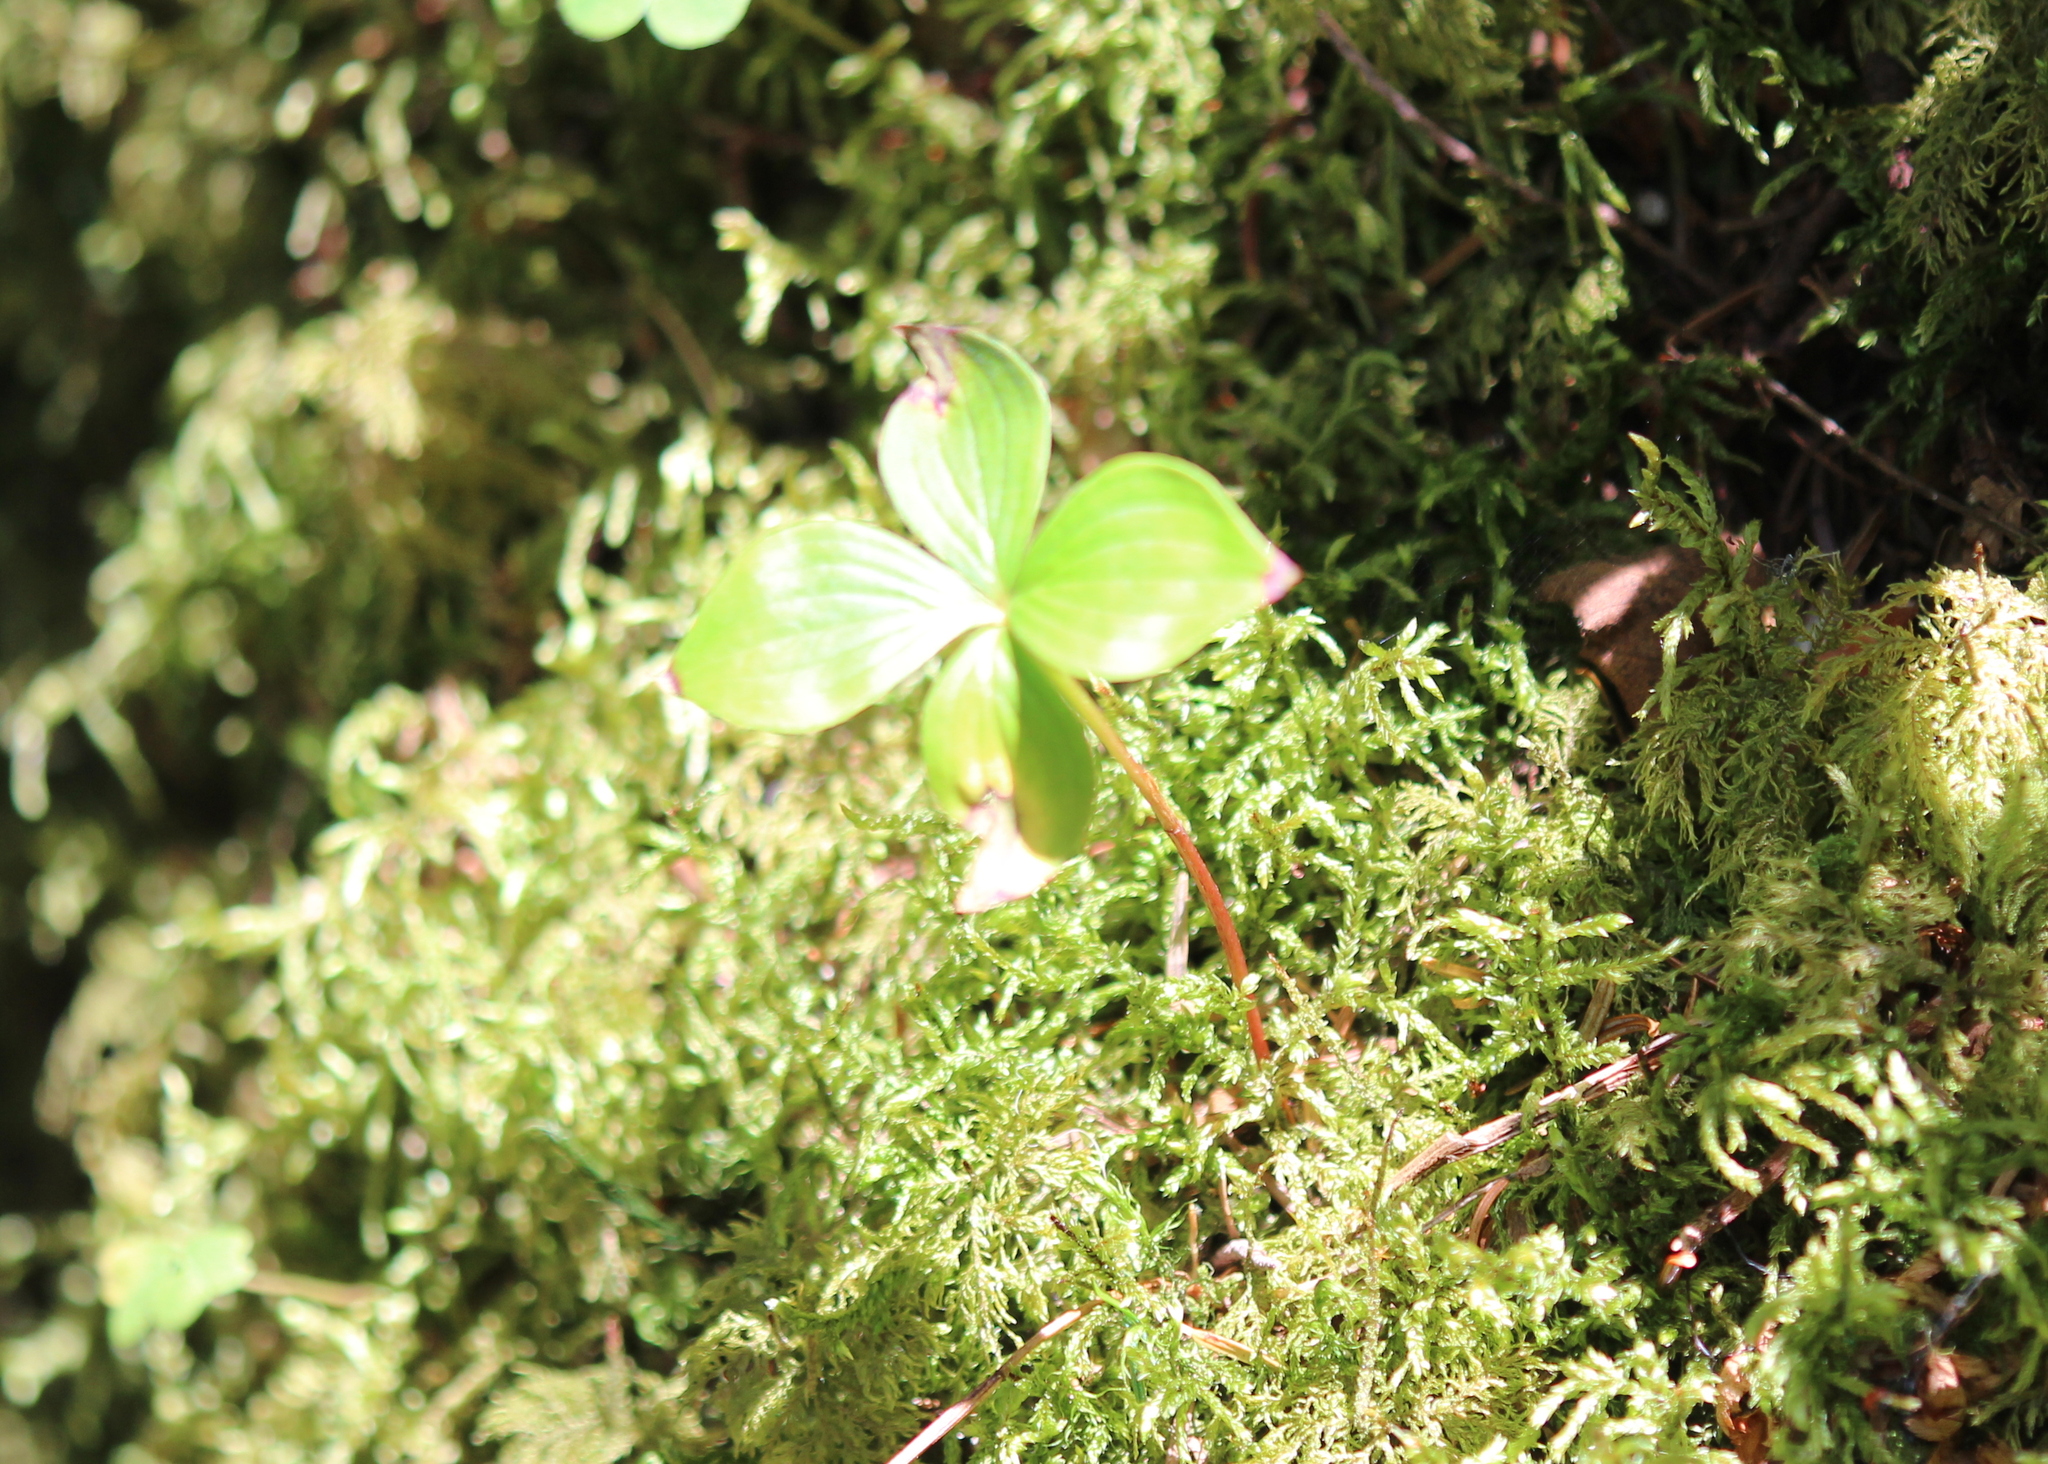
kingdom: Plantae
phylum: Tracheophyta
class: Magnoliopsida
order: Cornales
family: Cornaceae
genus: Cornus
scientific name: Cornus canadensis
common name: Creeping dogwood
